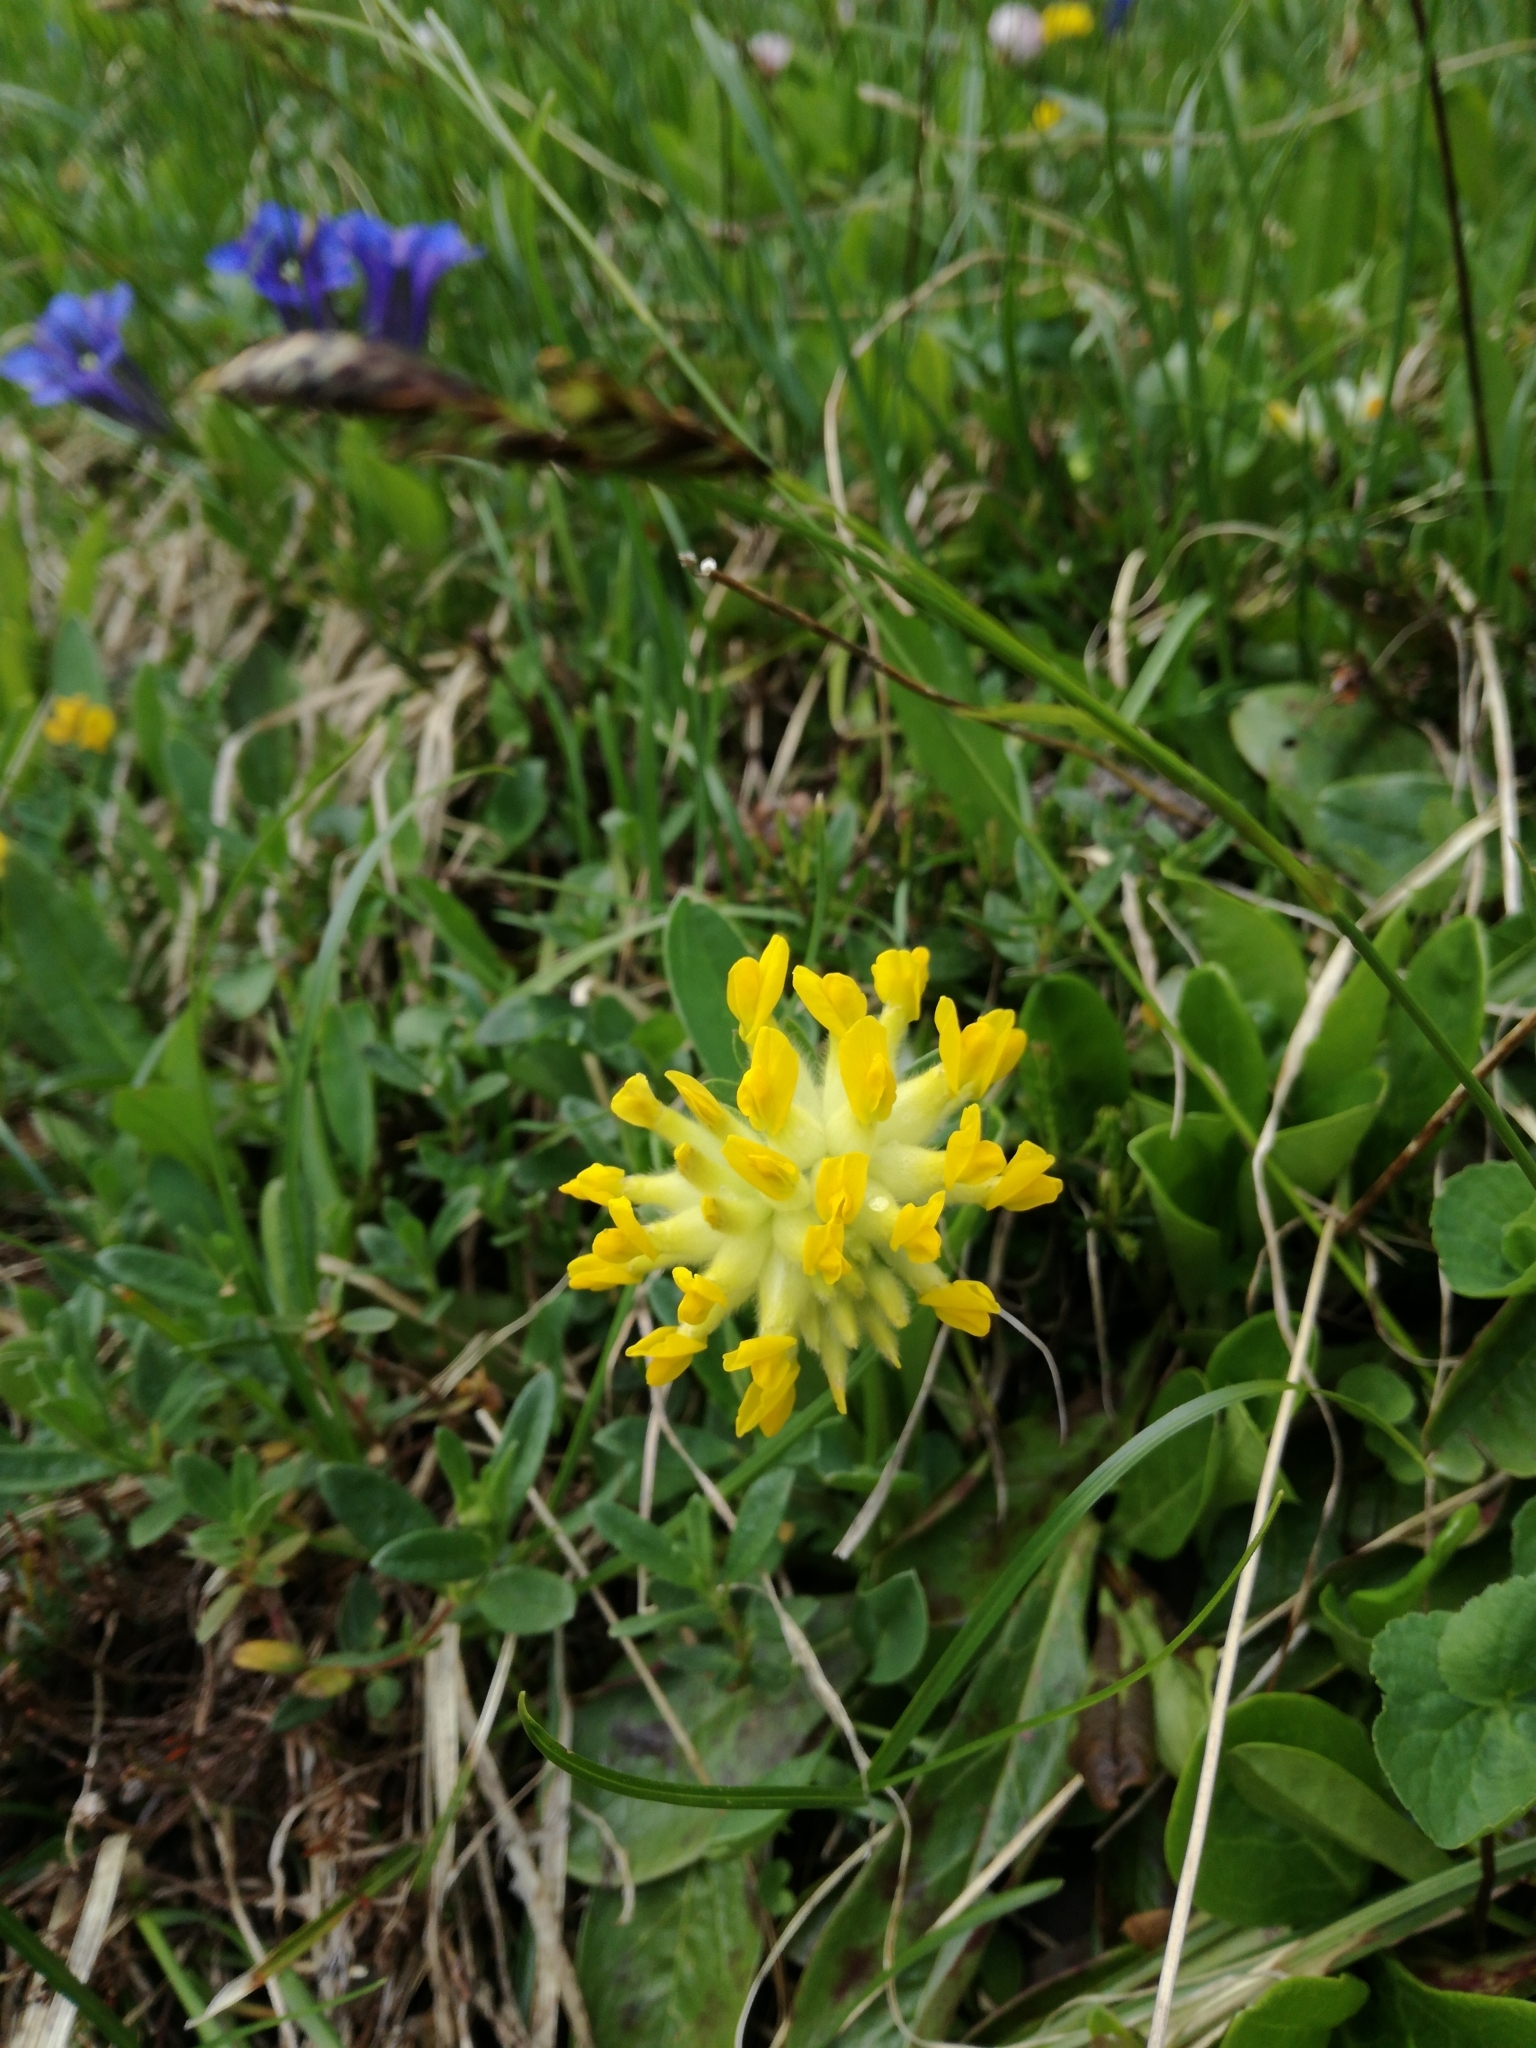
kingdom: Plantae
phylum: Tracheophyta
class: Magnoliopsida
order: Fabales
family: Fabaceae
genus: Anthyllis
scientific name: Anthyllis vulneraria
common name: Kidney vetch
